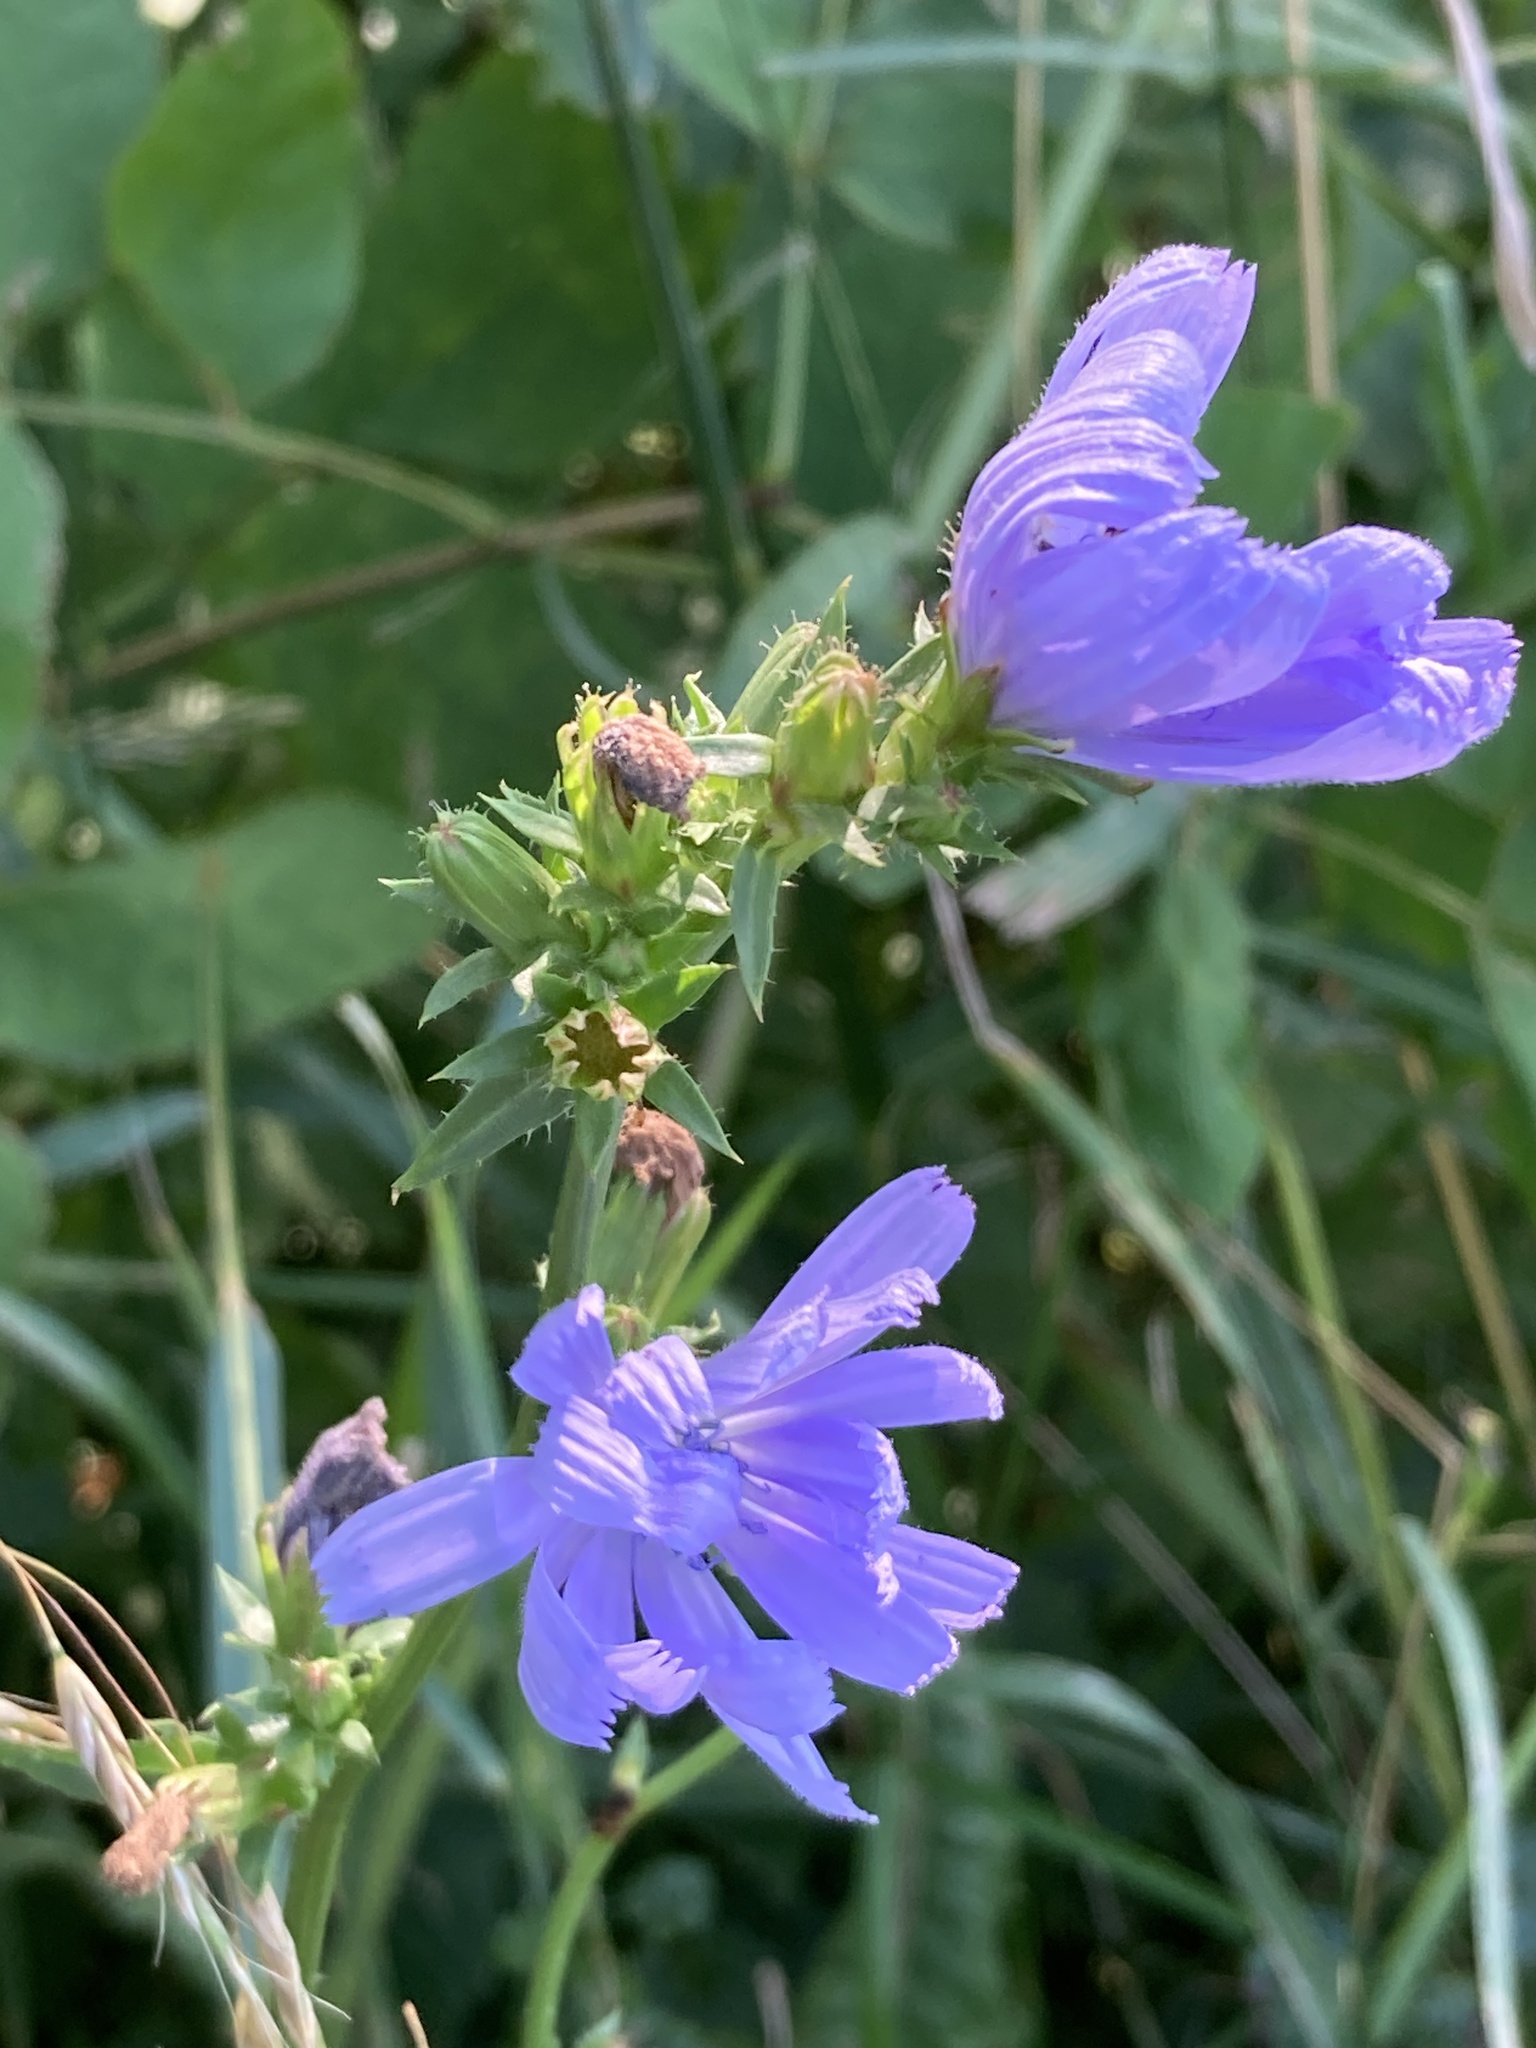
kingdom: Plantae
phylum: Tracheophyta
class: Magnoliopsida
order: Asterales
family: Asteraceae
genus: Cichorium
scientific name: Cichorium intybus
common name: Chicory
